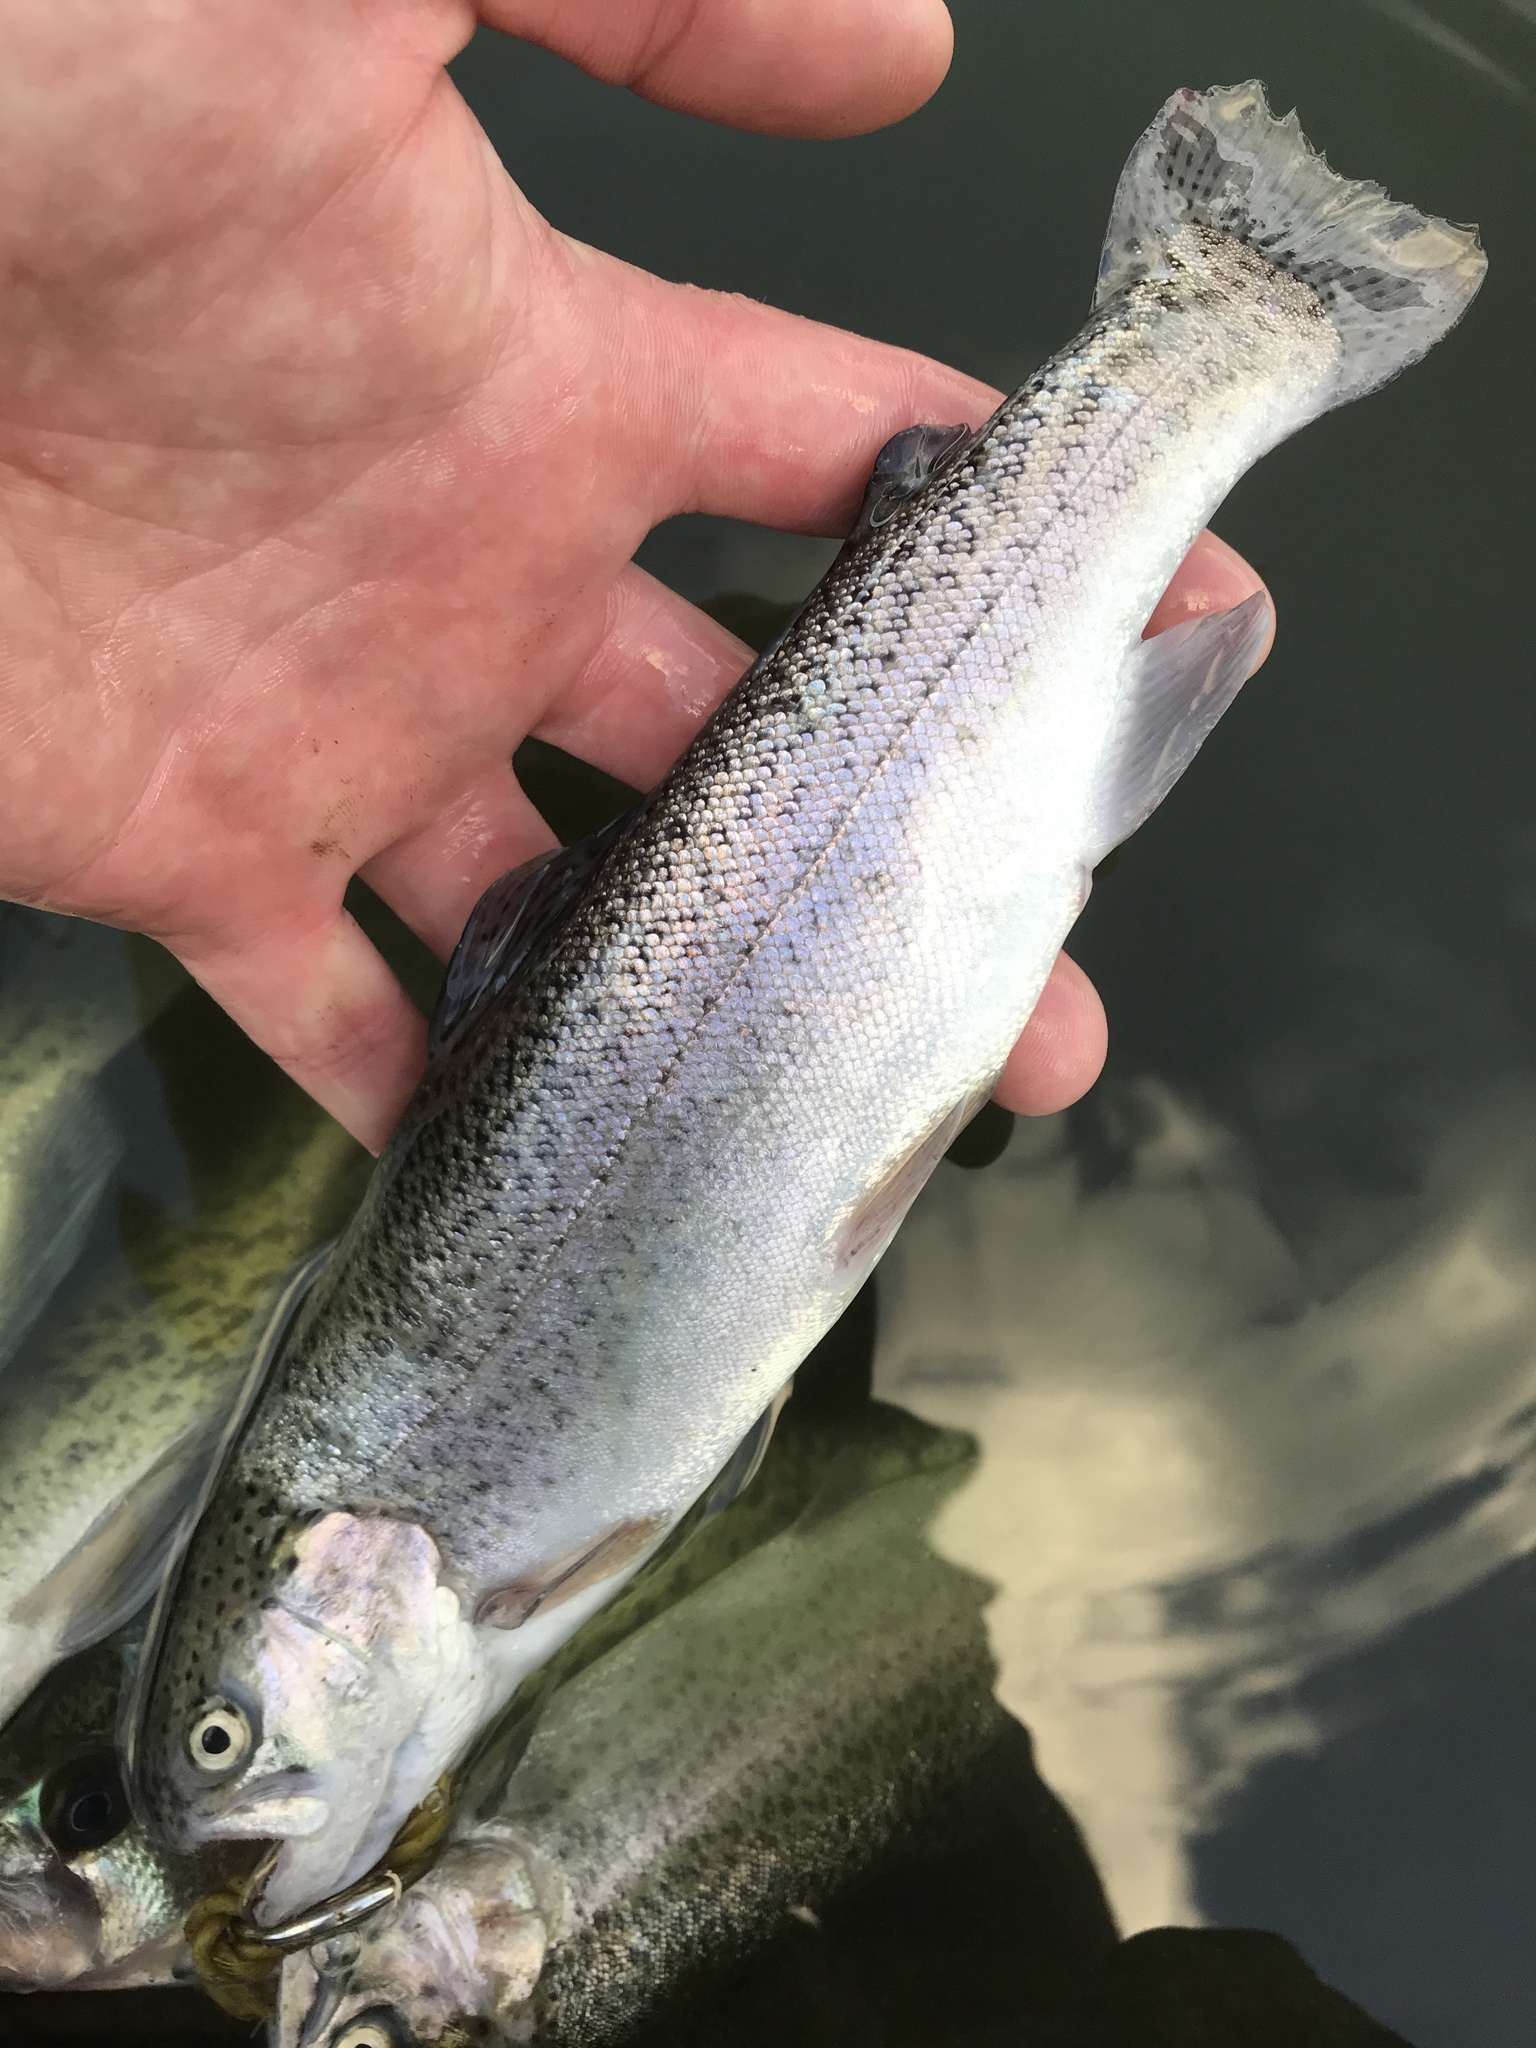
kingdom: Animalia
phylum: Chordata
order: Salmoniformes
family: Salmonidae
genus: Oncorhynchus
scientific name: Oncorhynchus mykiss
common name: Rainbow trout
